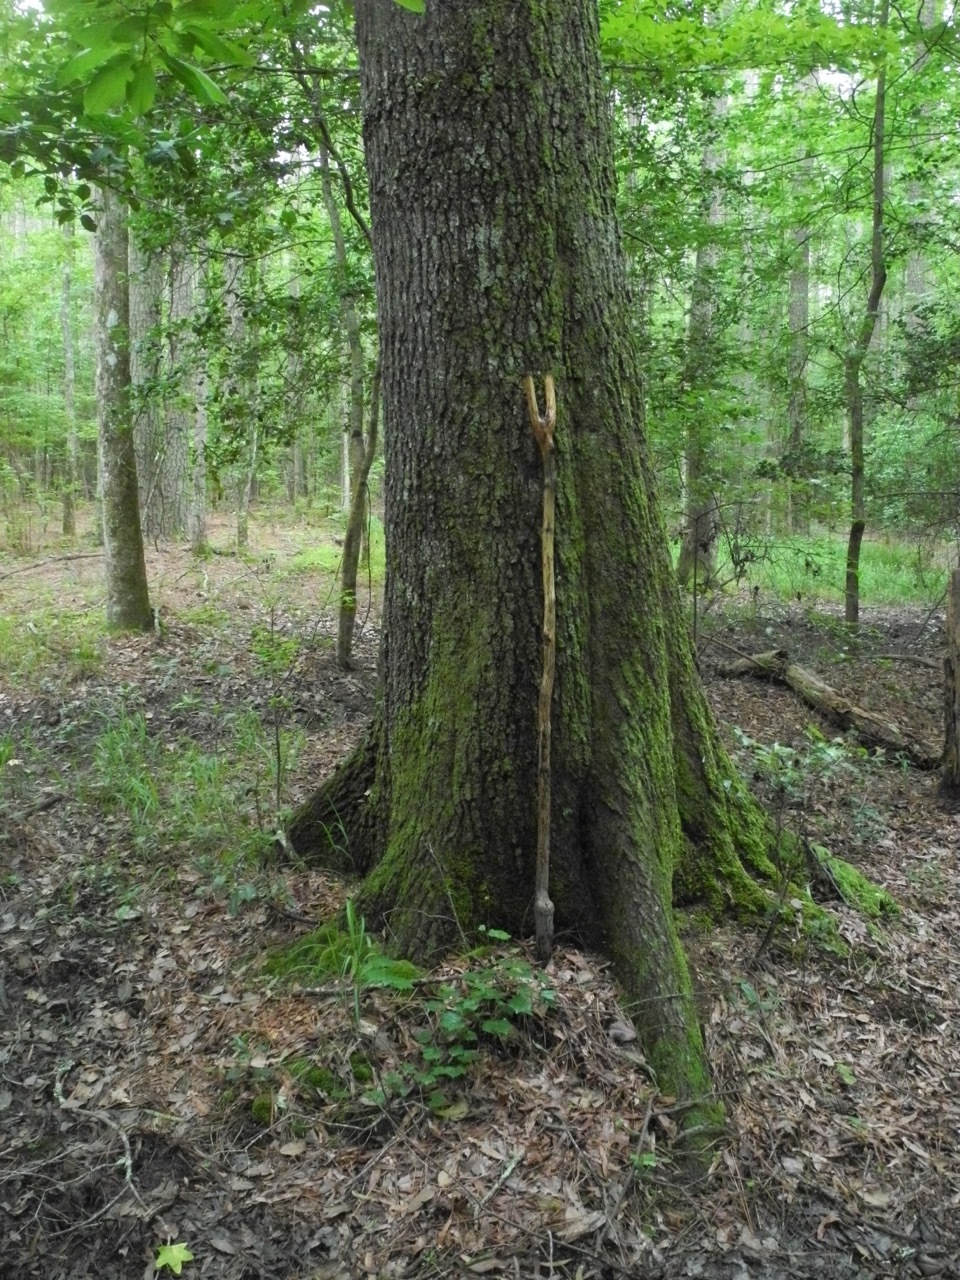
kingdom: Plantae
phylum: Tracheophyta
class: Magnoliopsida
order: Fagales
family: Fagaceae
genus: Quercus
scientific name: Quercus phellos
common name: Willow oak
